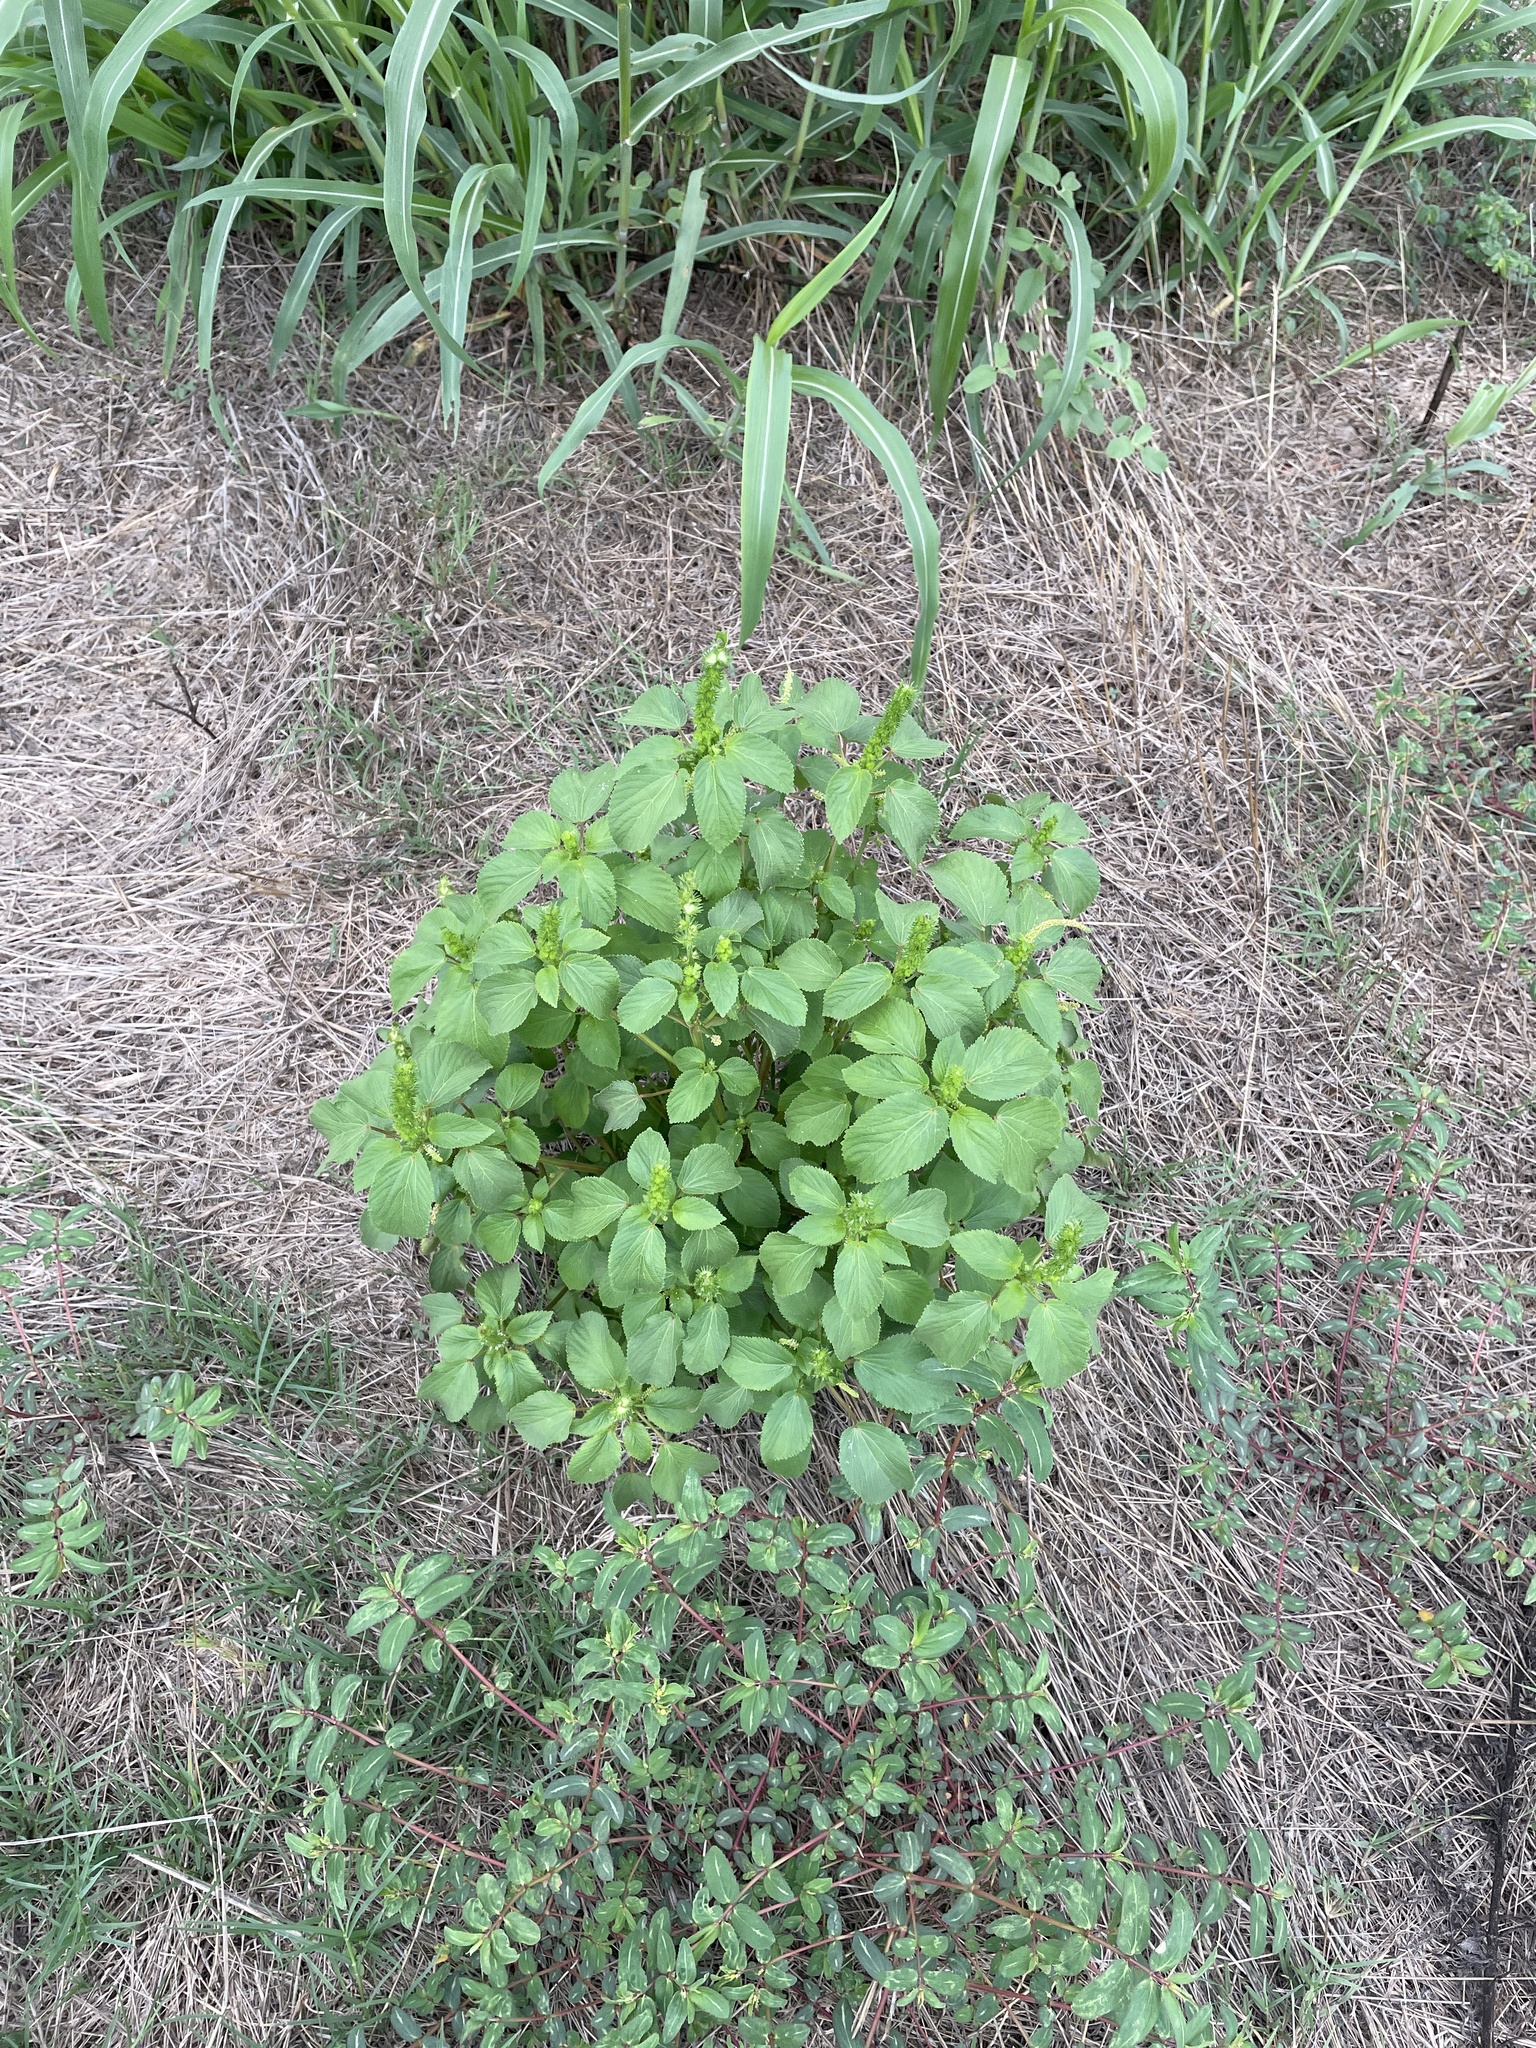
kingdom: Plantae
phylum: Tracheophyta
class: Magnoliopsida
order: Malpighiales
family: Euphorbiaceae
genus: Acalypha
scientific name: Acalypha ostryifolia
